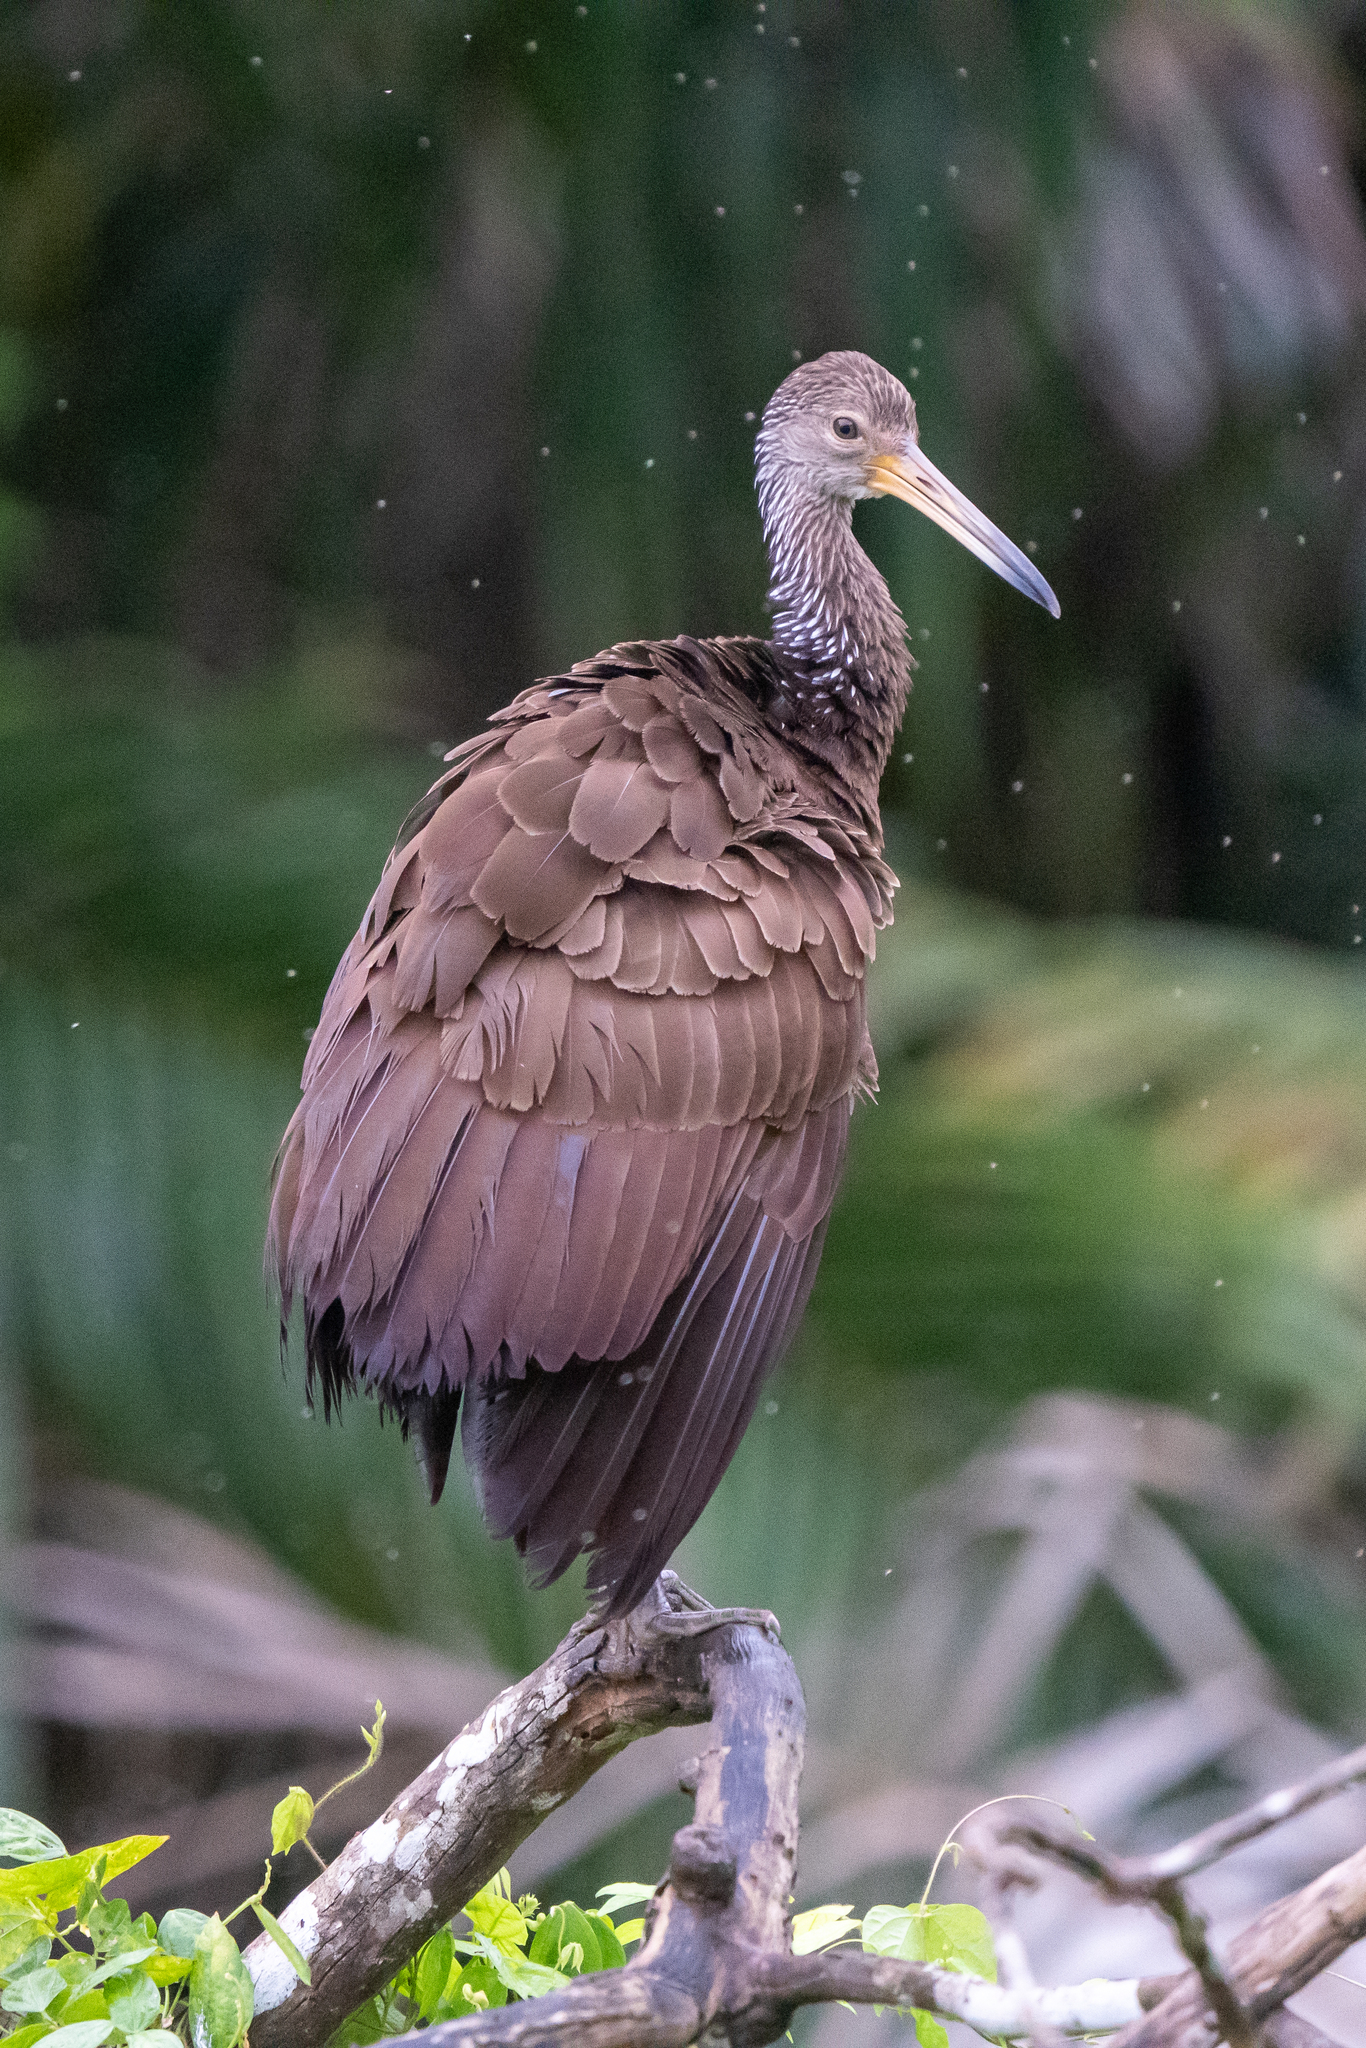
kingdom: Animalia
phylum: Chordata
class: Aves
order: Gruiformes
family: Aramidae
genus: Aramus
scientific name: Aramus guarauna
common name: Limpkin
